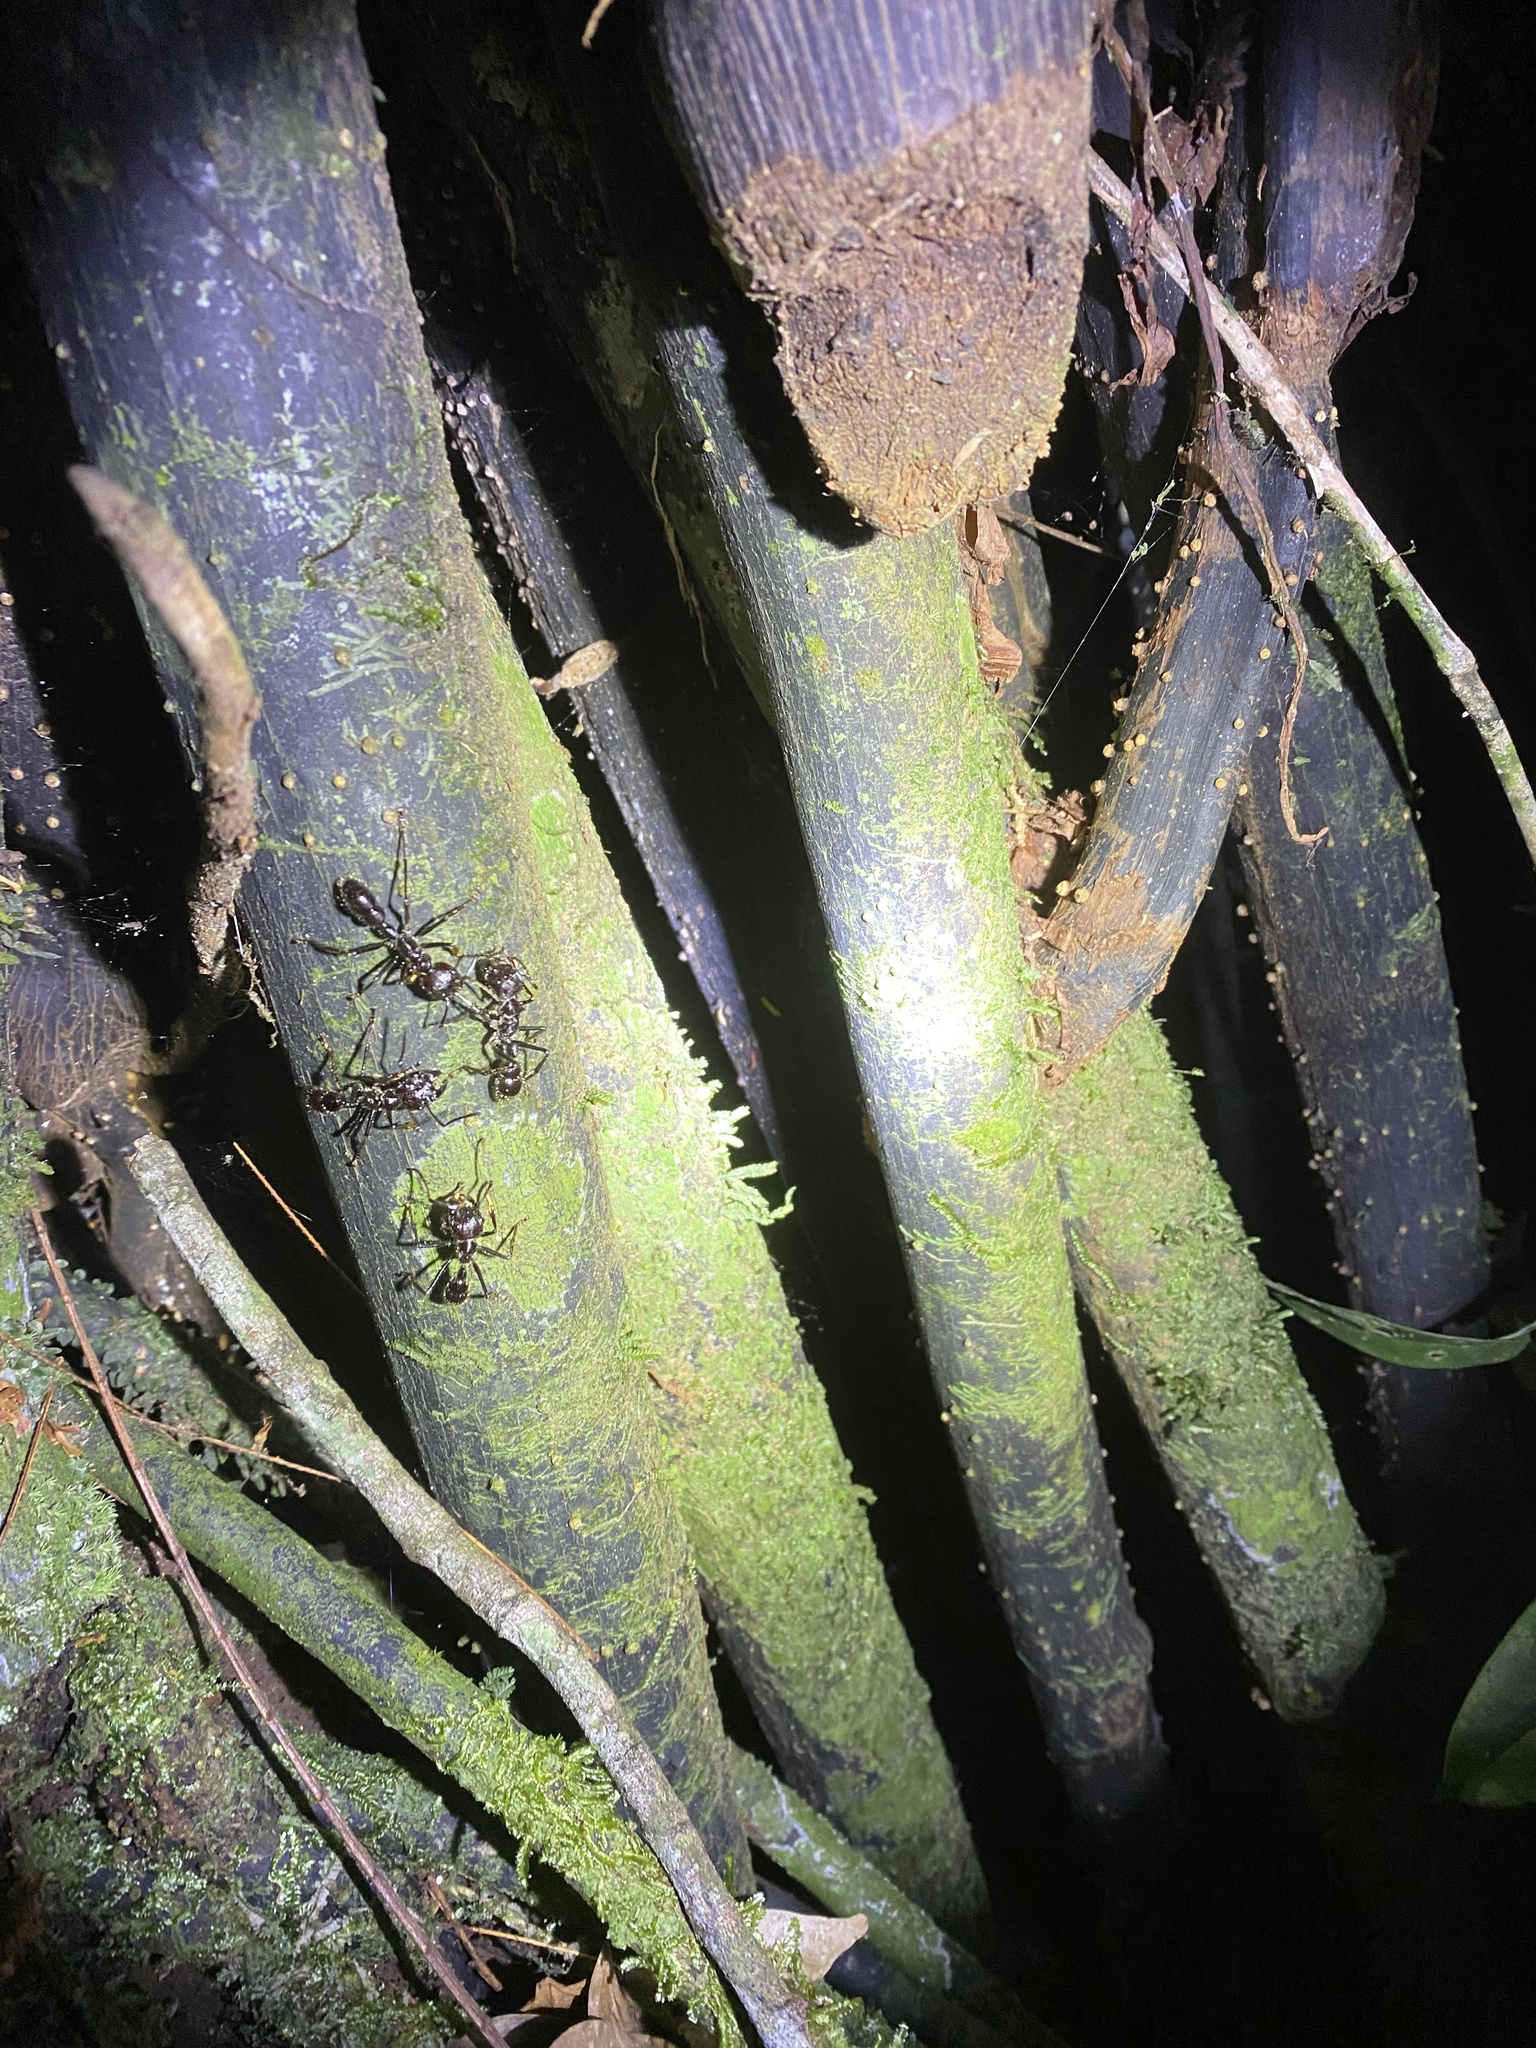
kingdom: Animalia
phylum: Arthropoda
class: Insecta
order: Hymenoptera
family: Formicidae
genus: Paraponera
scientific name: Paraponera clavata
